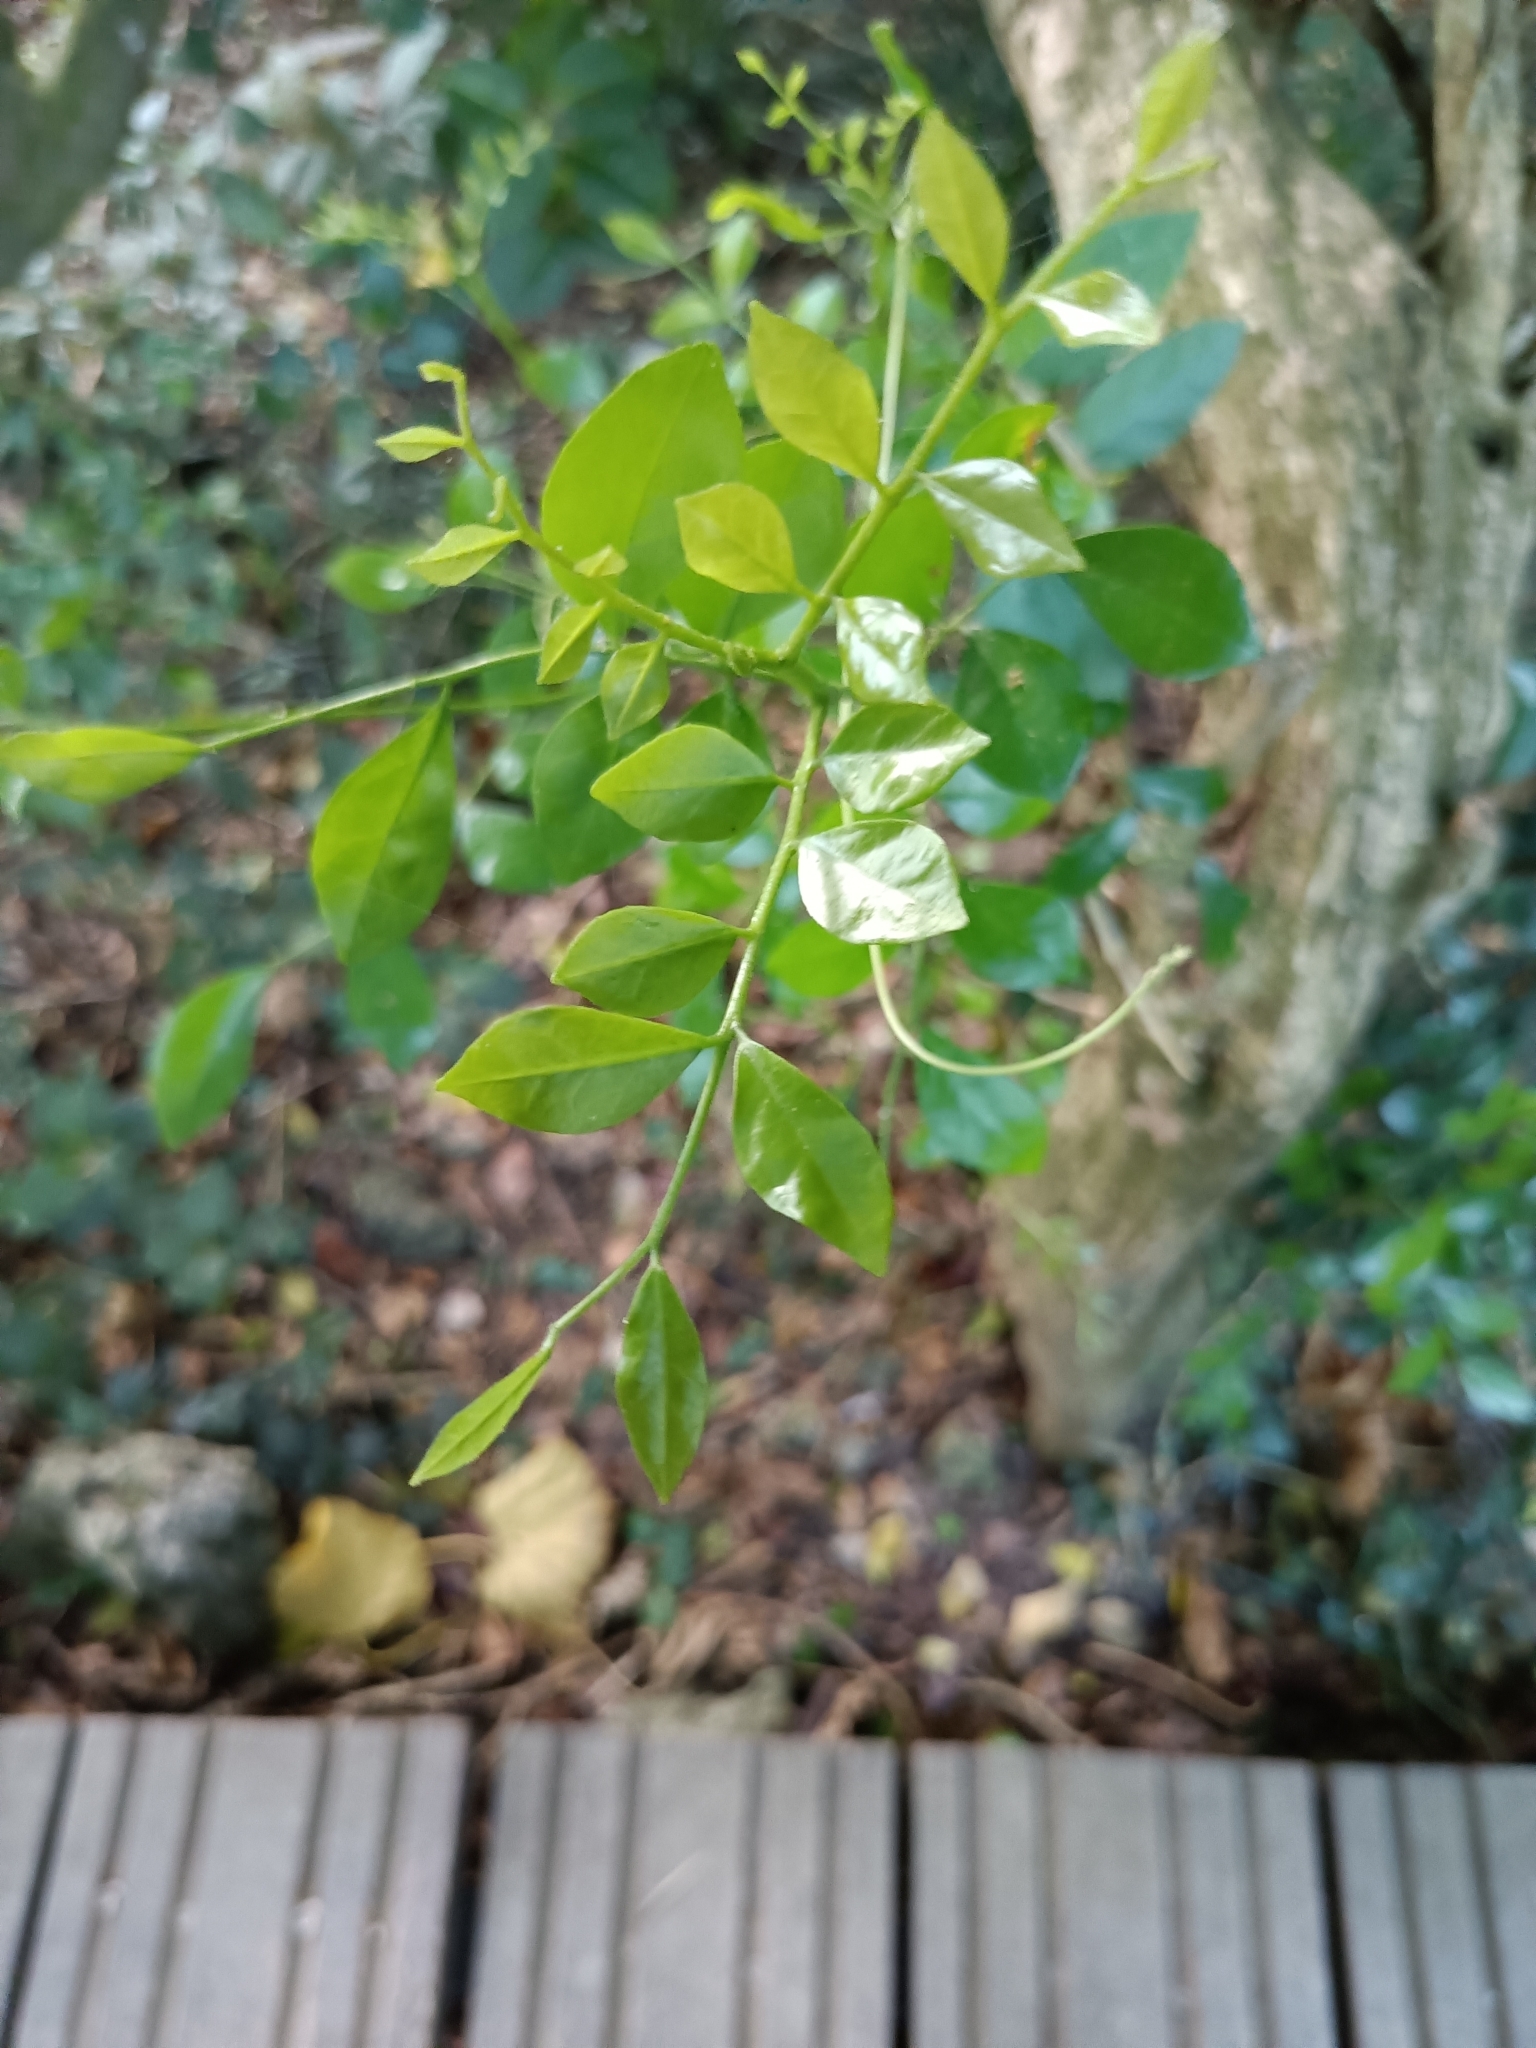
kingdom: Plantae
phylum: Tracheophyta
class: Magnoliopsida
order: Sapindales
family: Rutaceae
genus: Murraya
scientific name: Murraya paniculata
